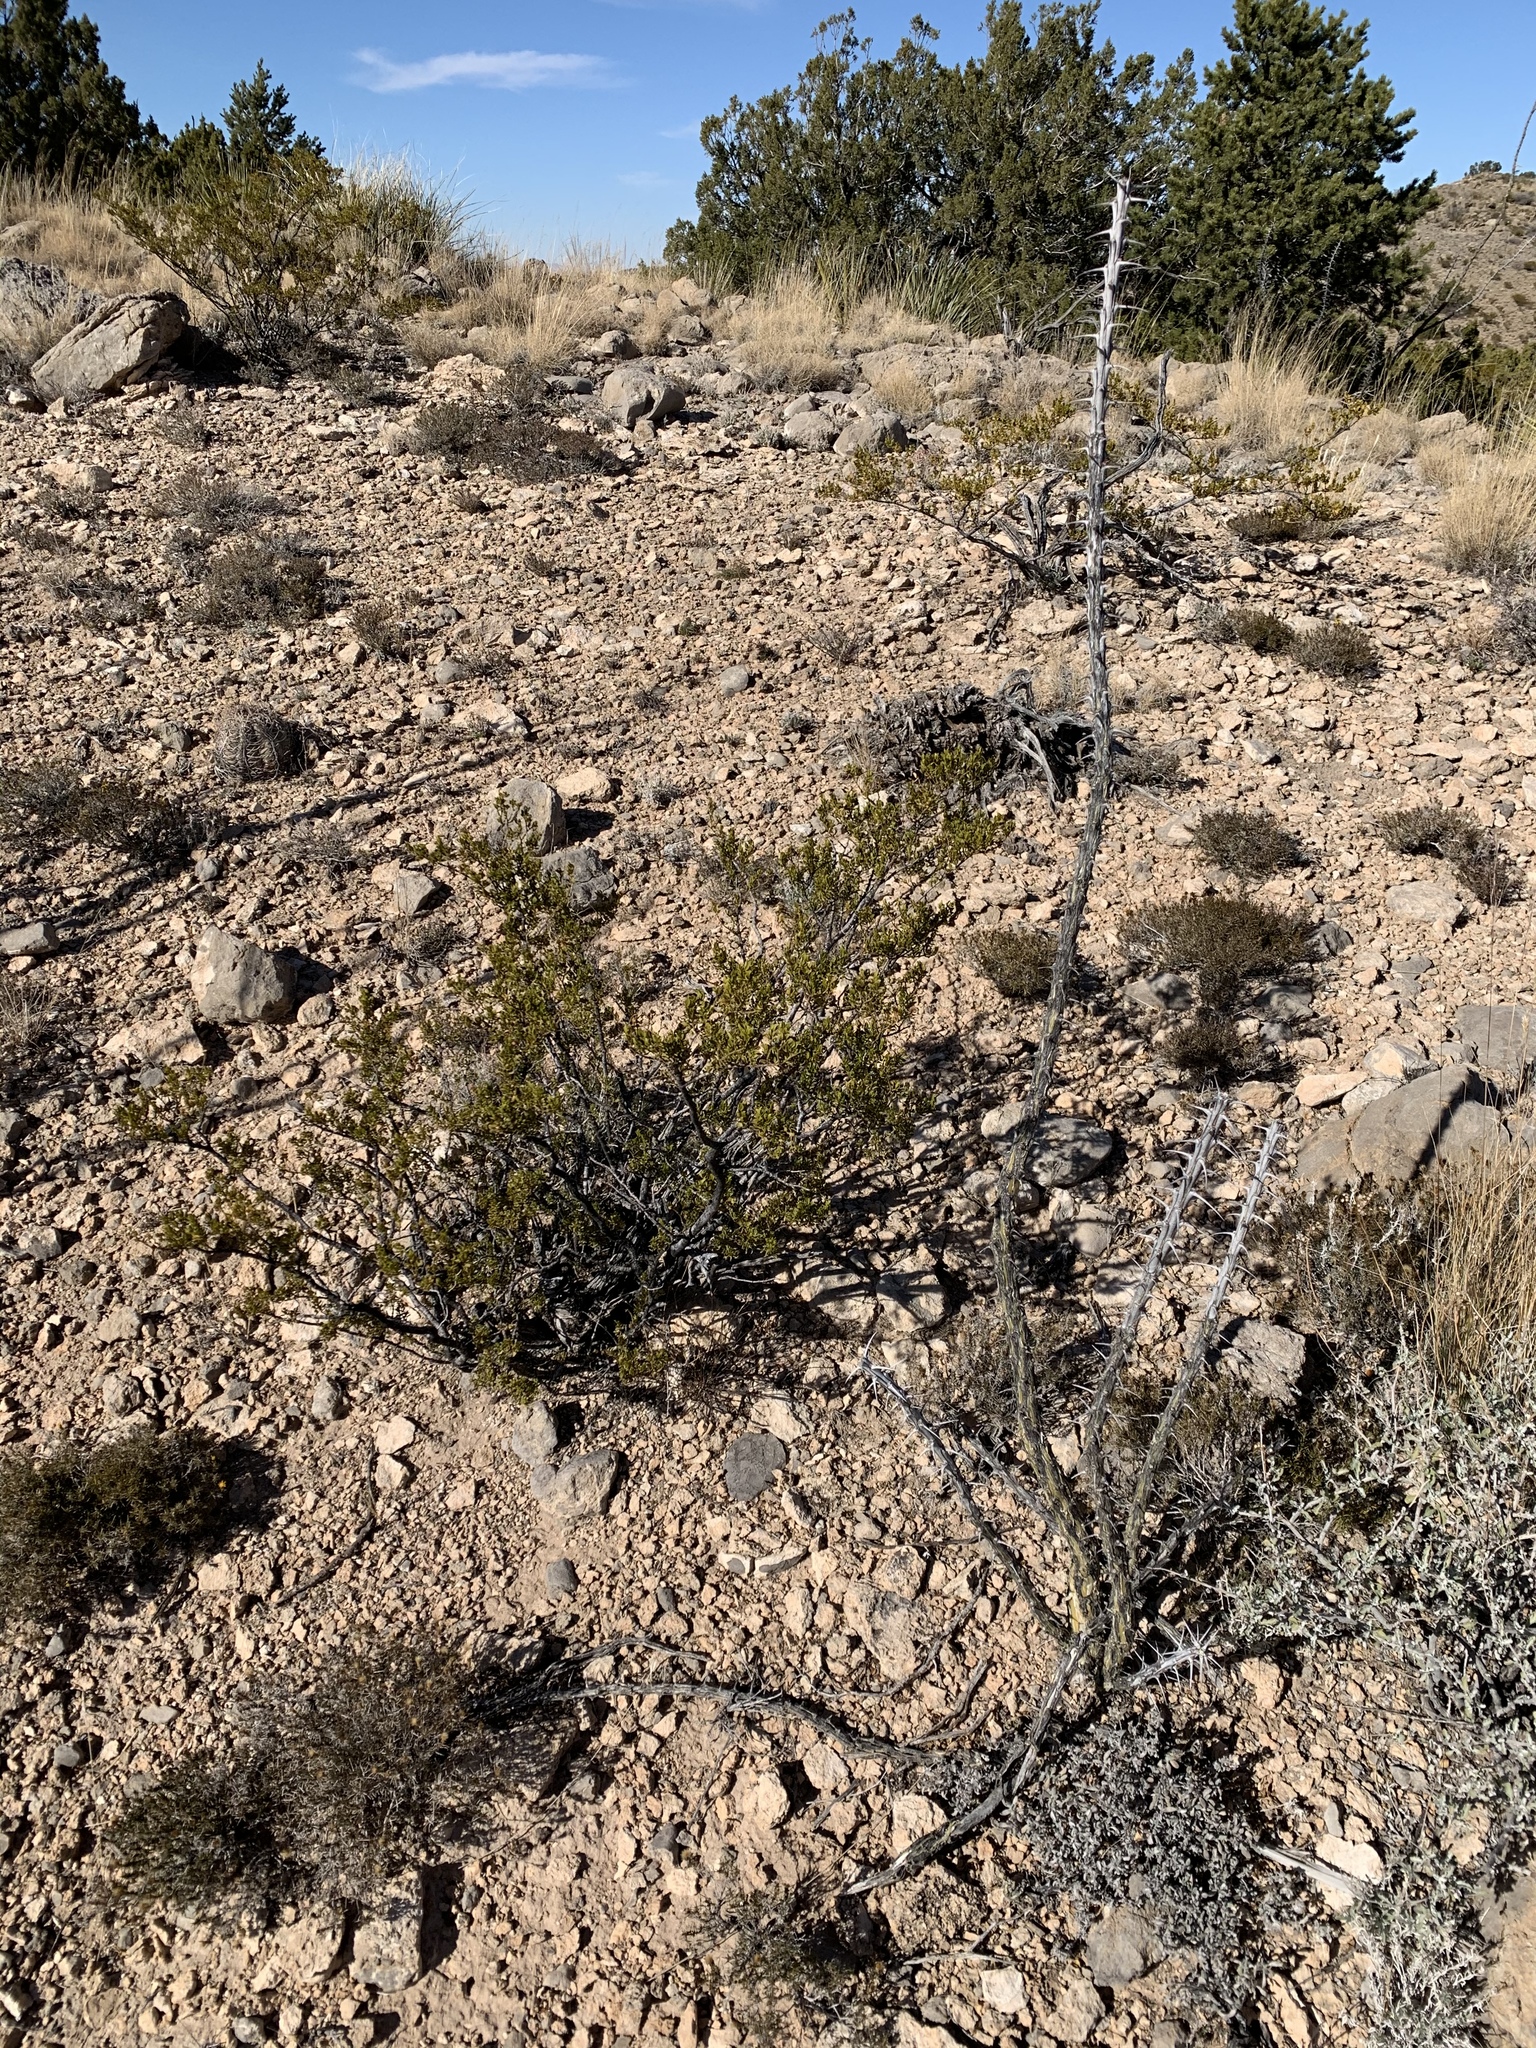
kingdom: Plantae
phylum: Tracheophyta
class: Magnoliopsida
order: Zygophyllales
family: Zygophyllaceae
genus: Larrea
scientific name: Larrea tridentata
